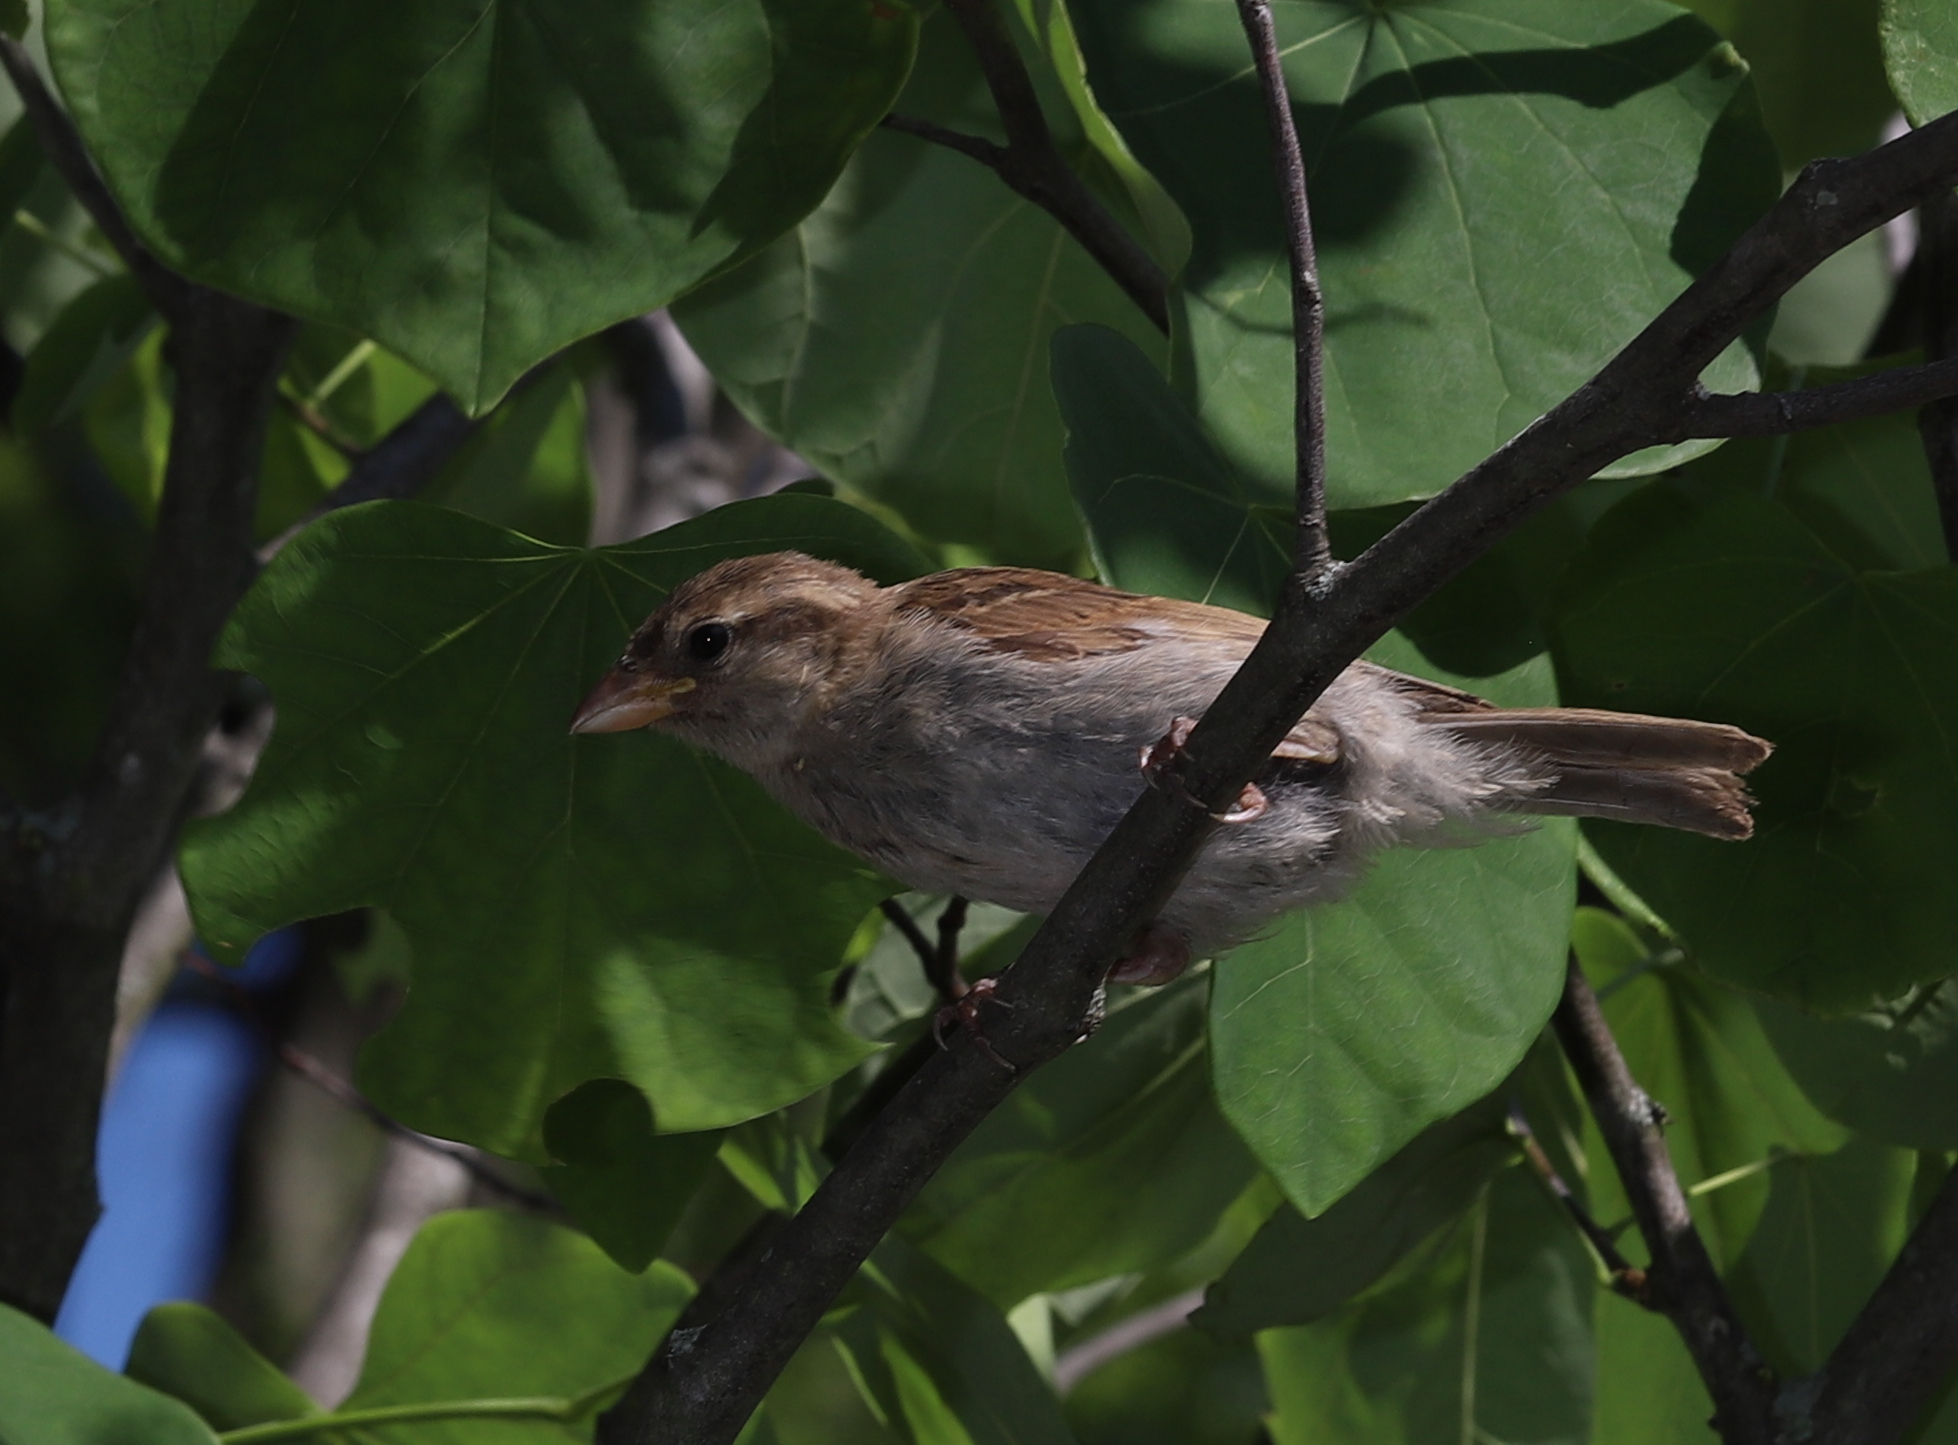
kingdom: Animalia
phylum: Chordata
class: Aves
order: Passeriformes
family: Passeridae
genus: Passer
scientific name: Passer domesticus
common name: House sparrow
